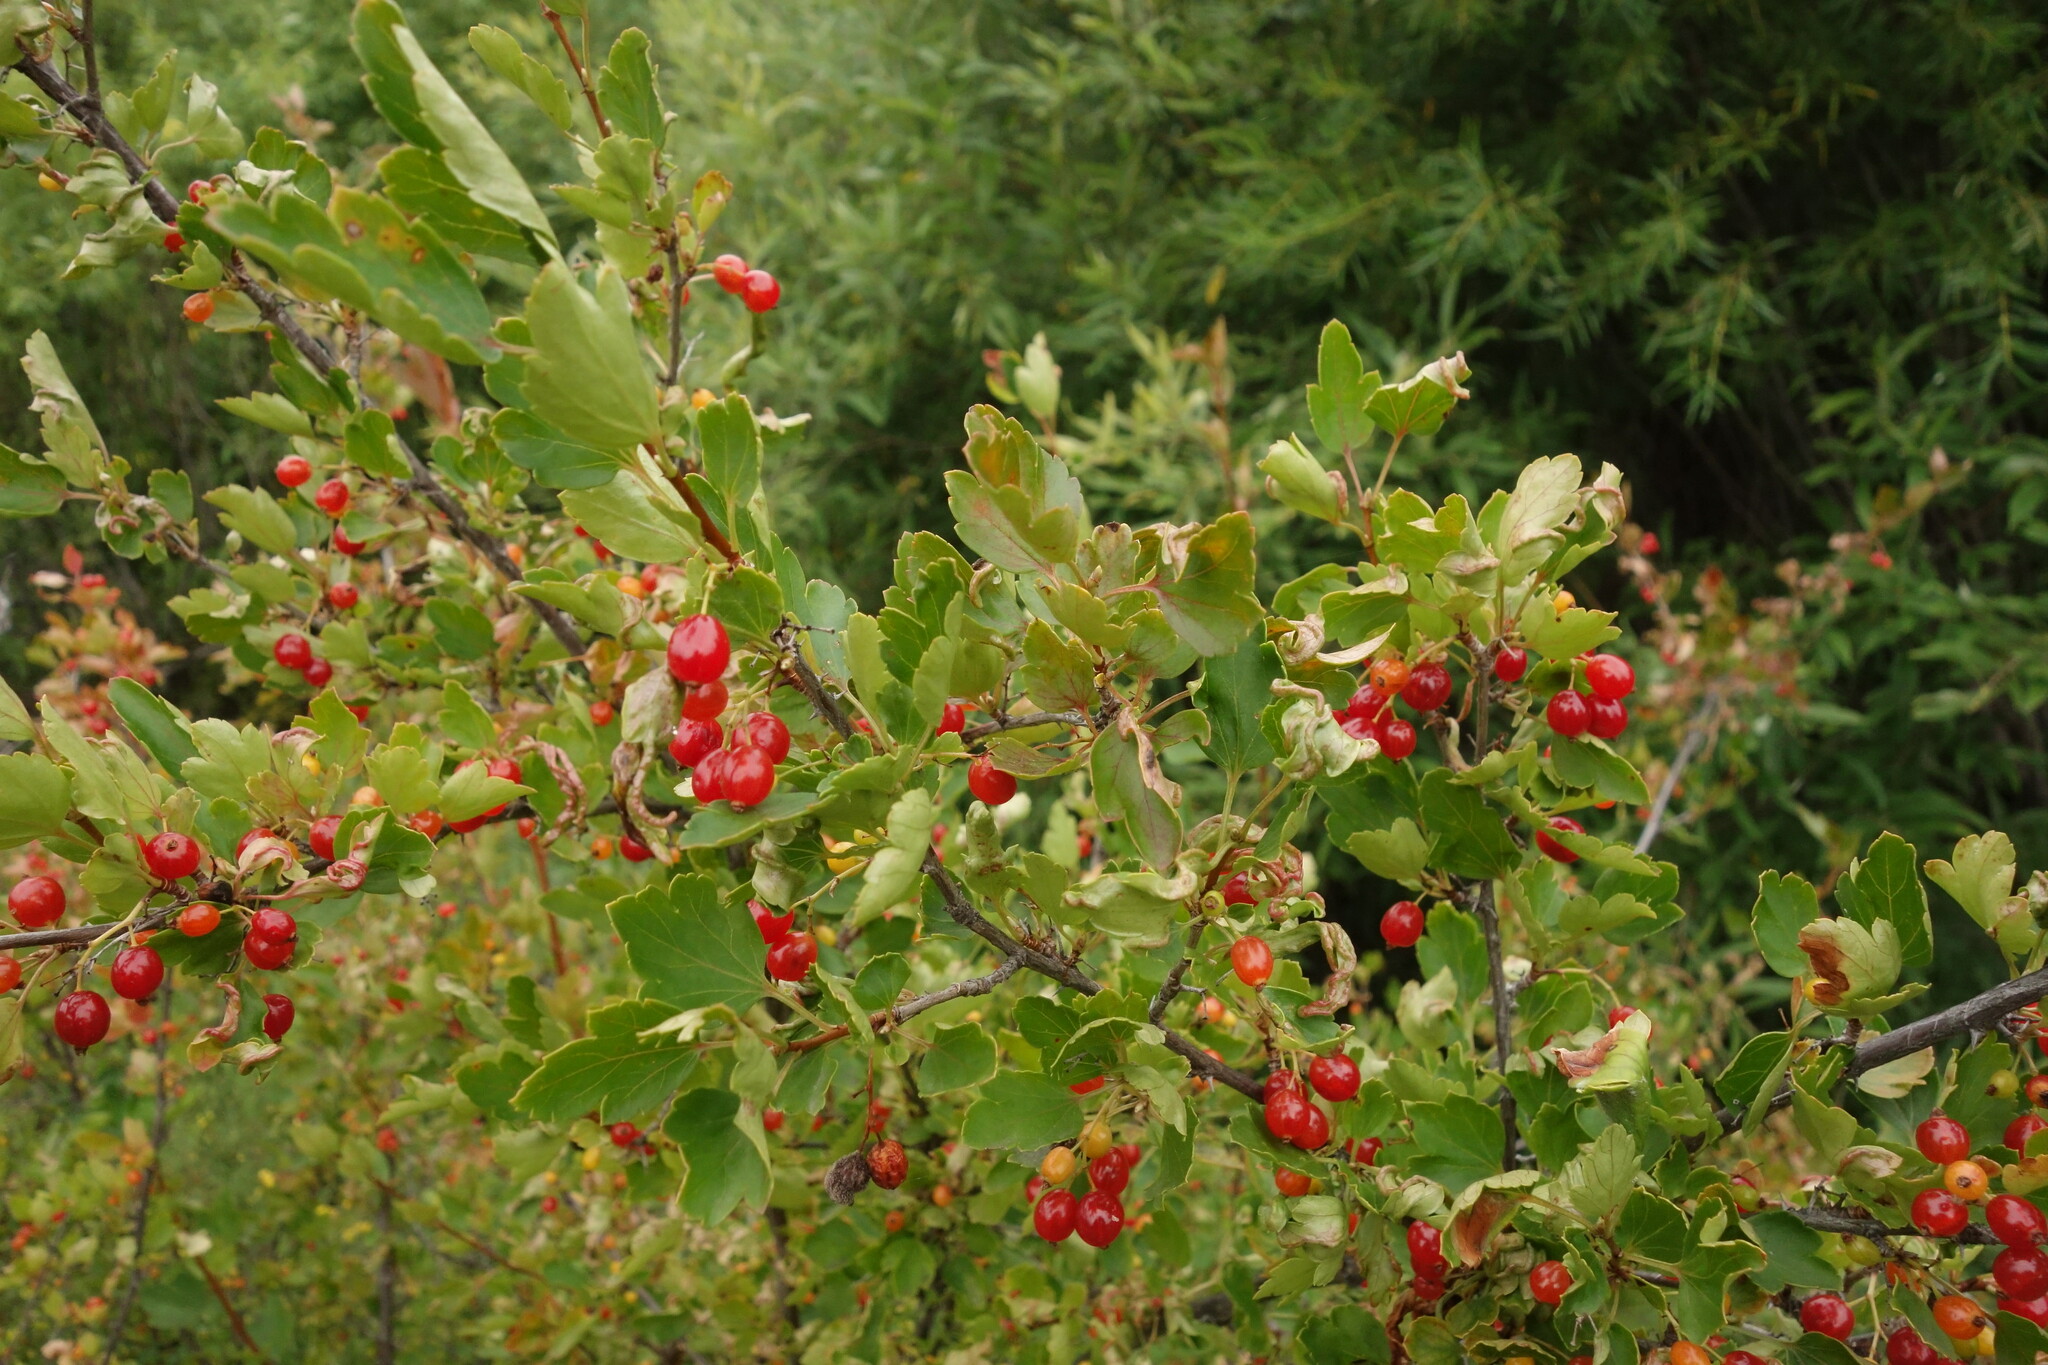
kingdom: Plantae
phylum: Tracheophyta
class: Magnoliopsida
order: Saxifragales
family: Grossulariaceae
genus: Ribes
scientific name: Ribes diacanthum
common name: Siberian currant
